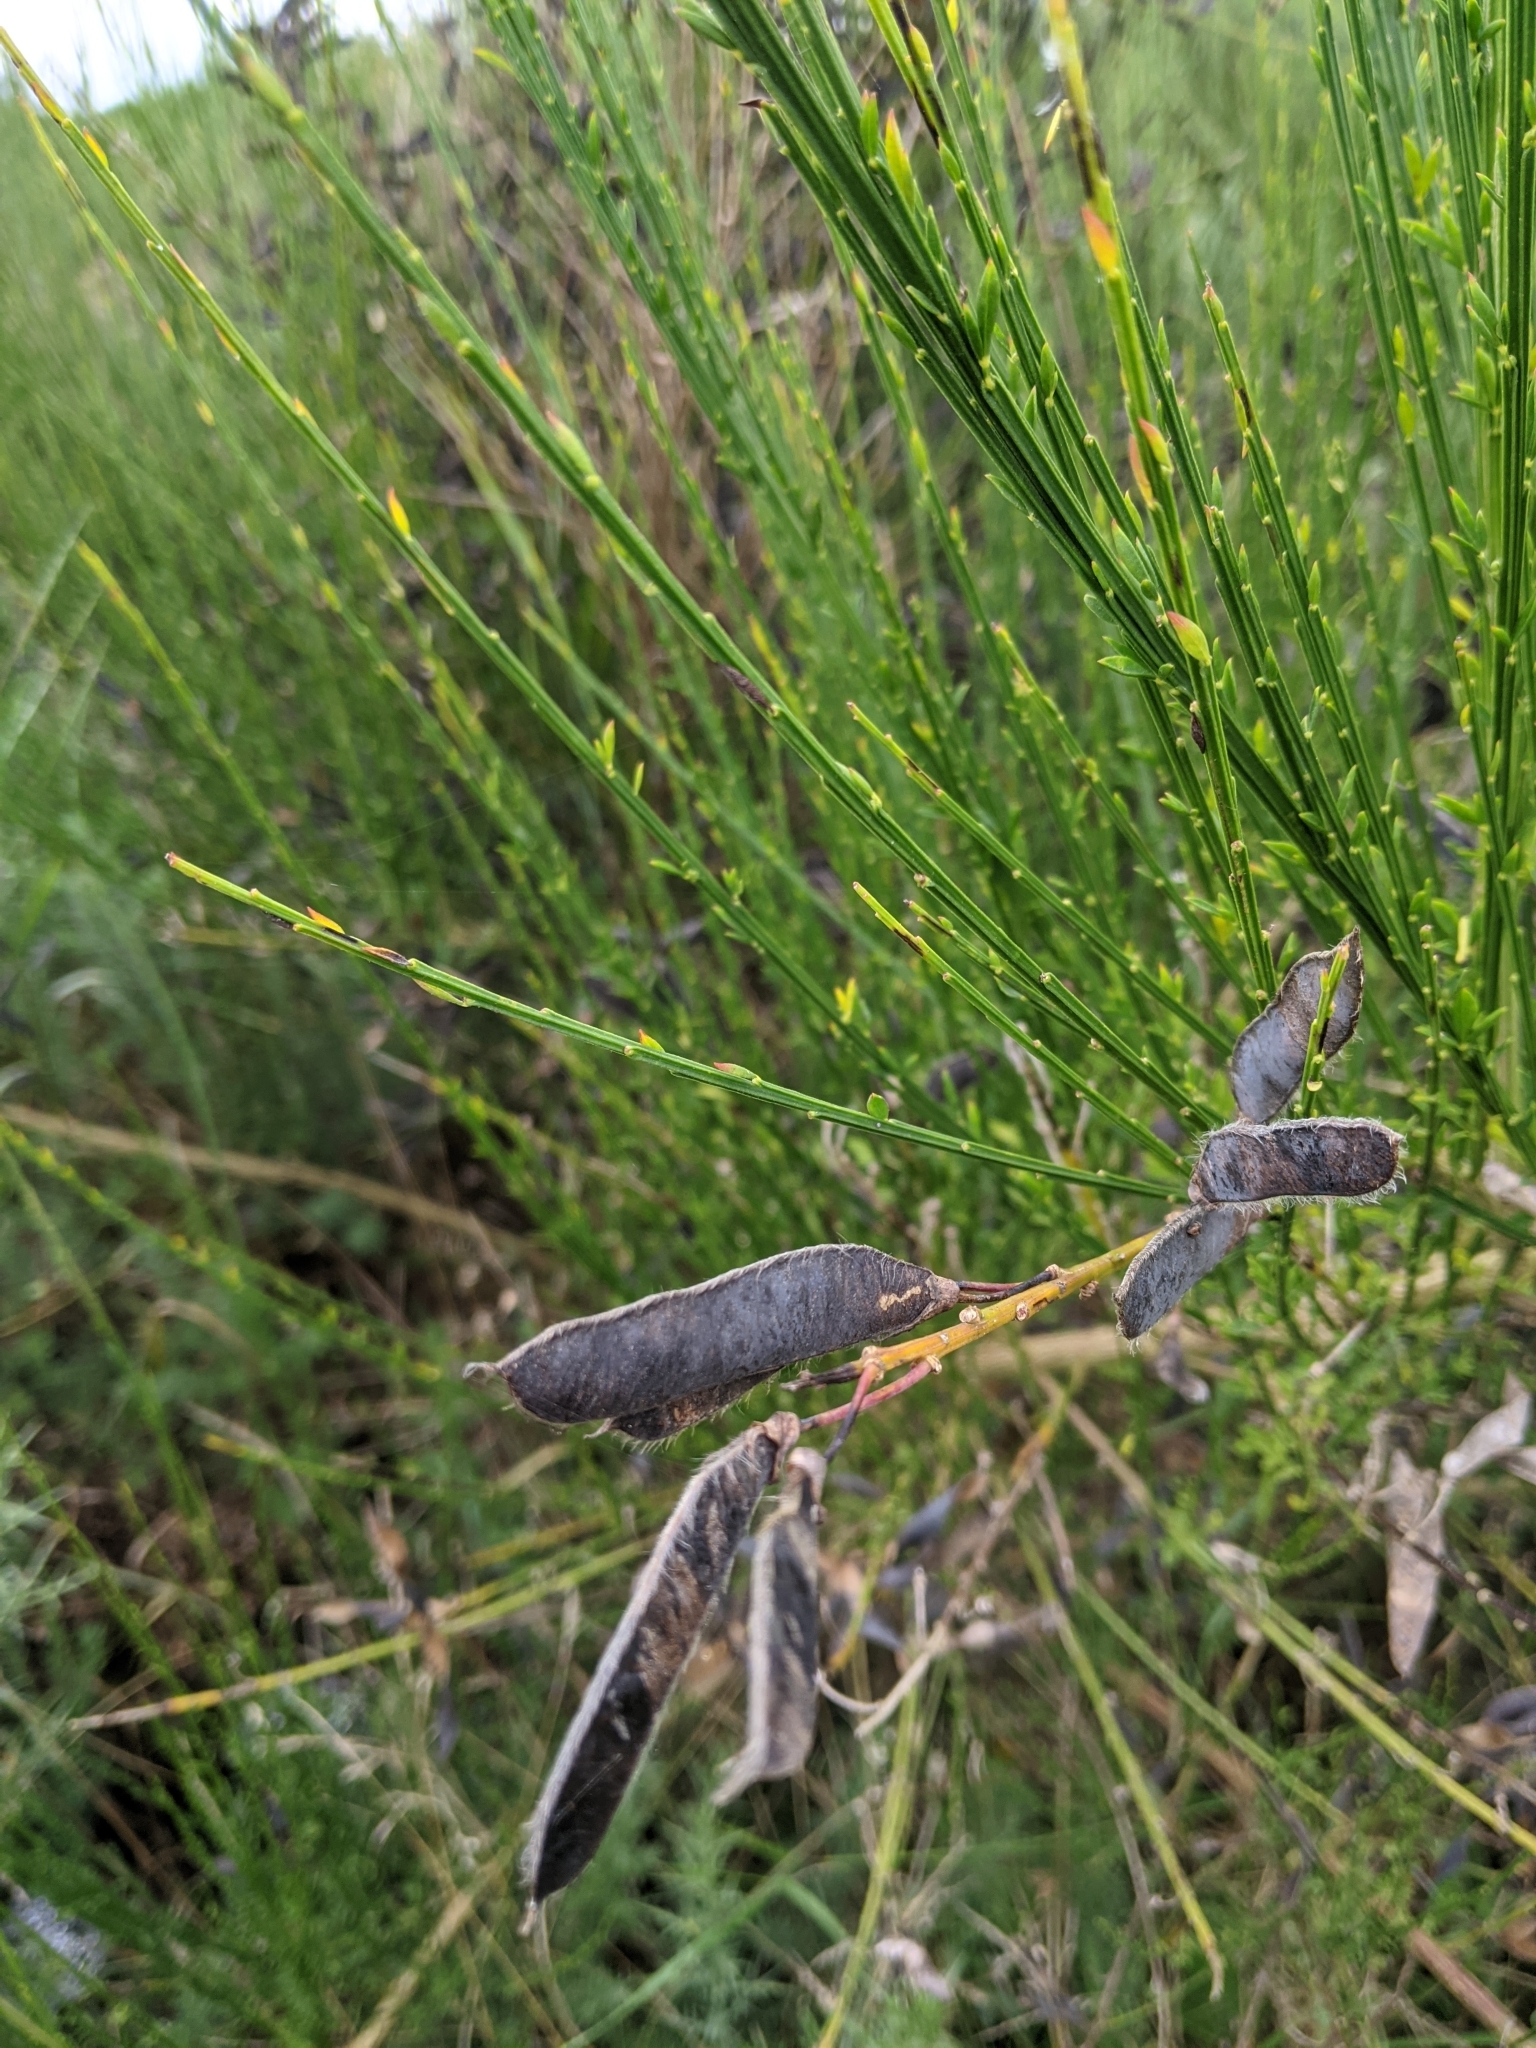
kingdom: Plantae
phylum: Tracheophyta
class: Magnoliopsida
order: Fabales
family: Fabaceae
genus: Cytisus
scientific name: Cytisus scoparius
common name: Scotch broom
